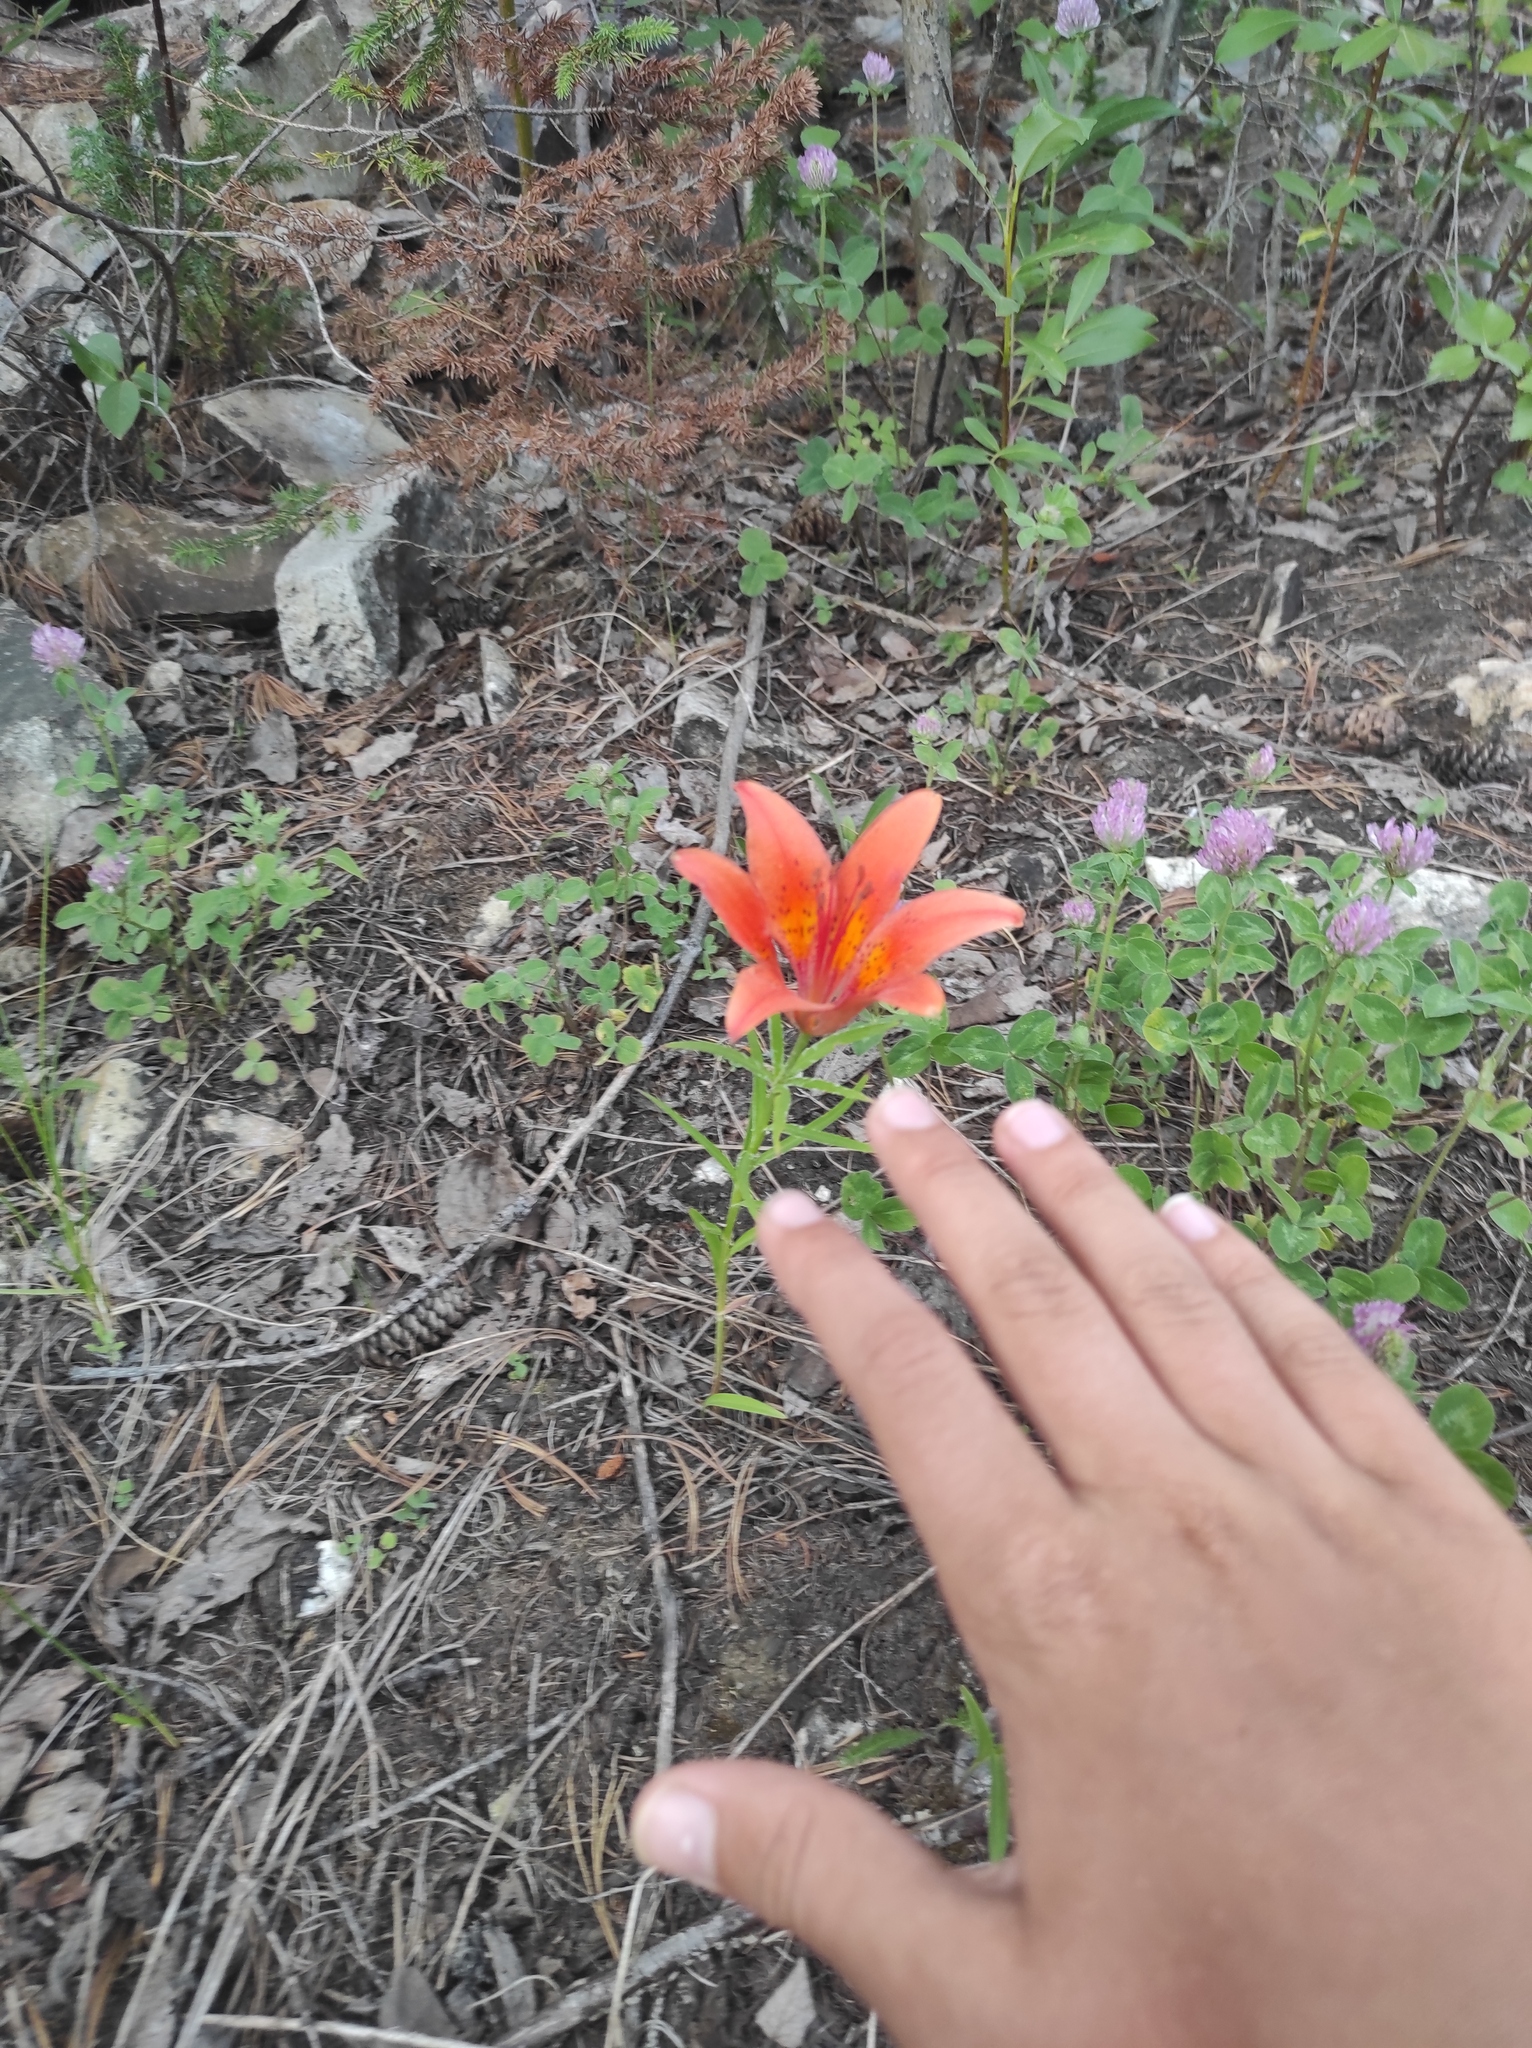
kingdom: Plantae
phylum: Tracheophyta
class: Liliopsida
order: Liliales
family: Liliaceae
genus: Lilium
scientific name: Lilium pensylvanicum
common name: Candlestick lily
